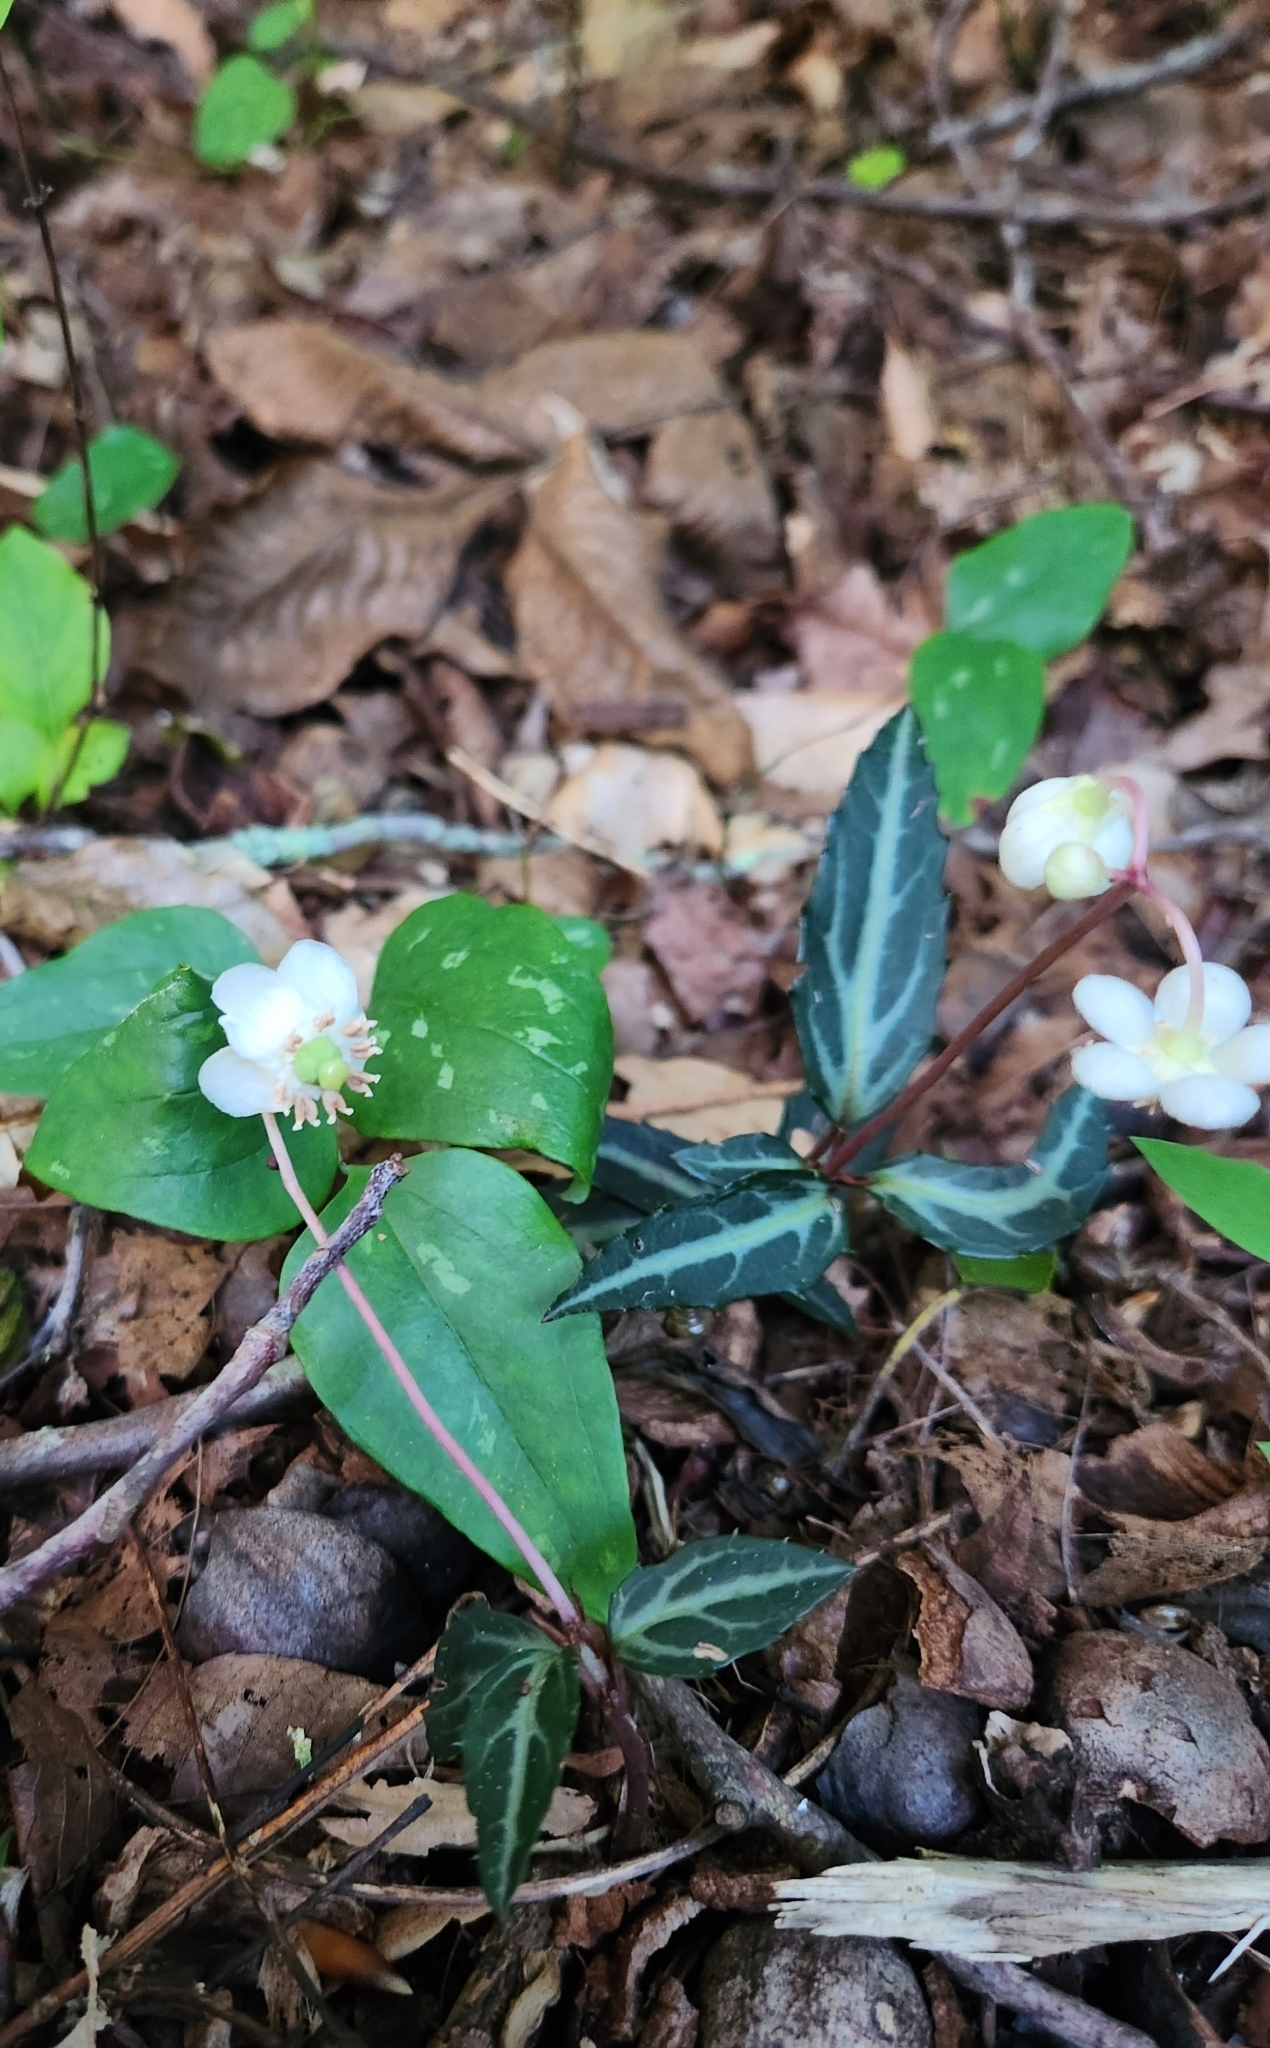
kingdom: Plantae
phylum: Tracheophyta
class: Magnoliopsida
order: Ericales
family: Ericaceae
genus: Chimaphila
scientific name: Chimaphila maculata
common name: Spotted pipsissewa
